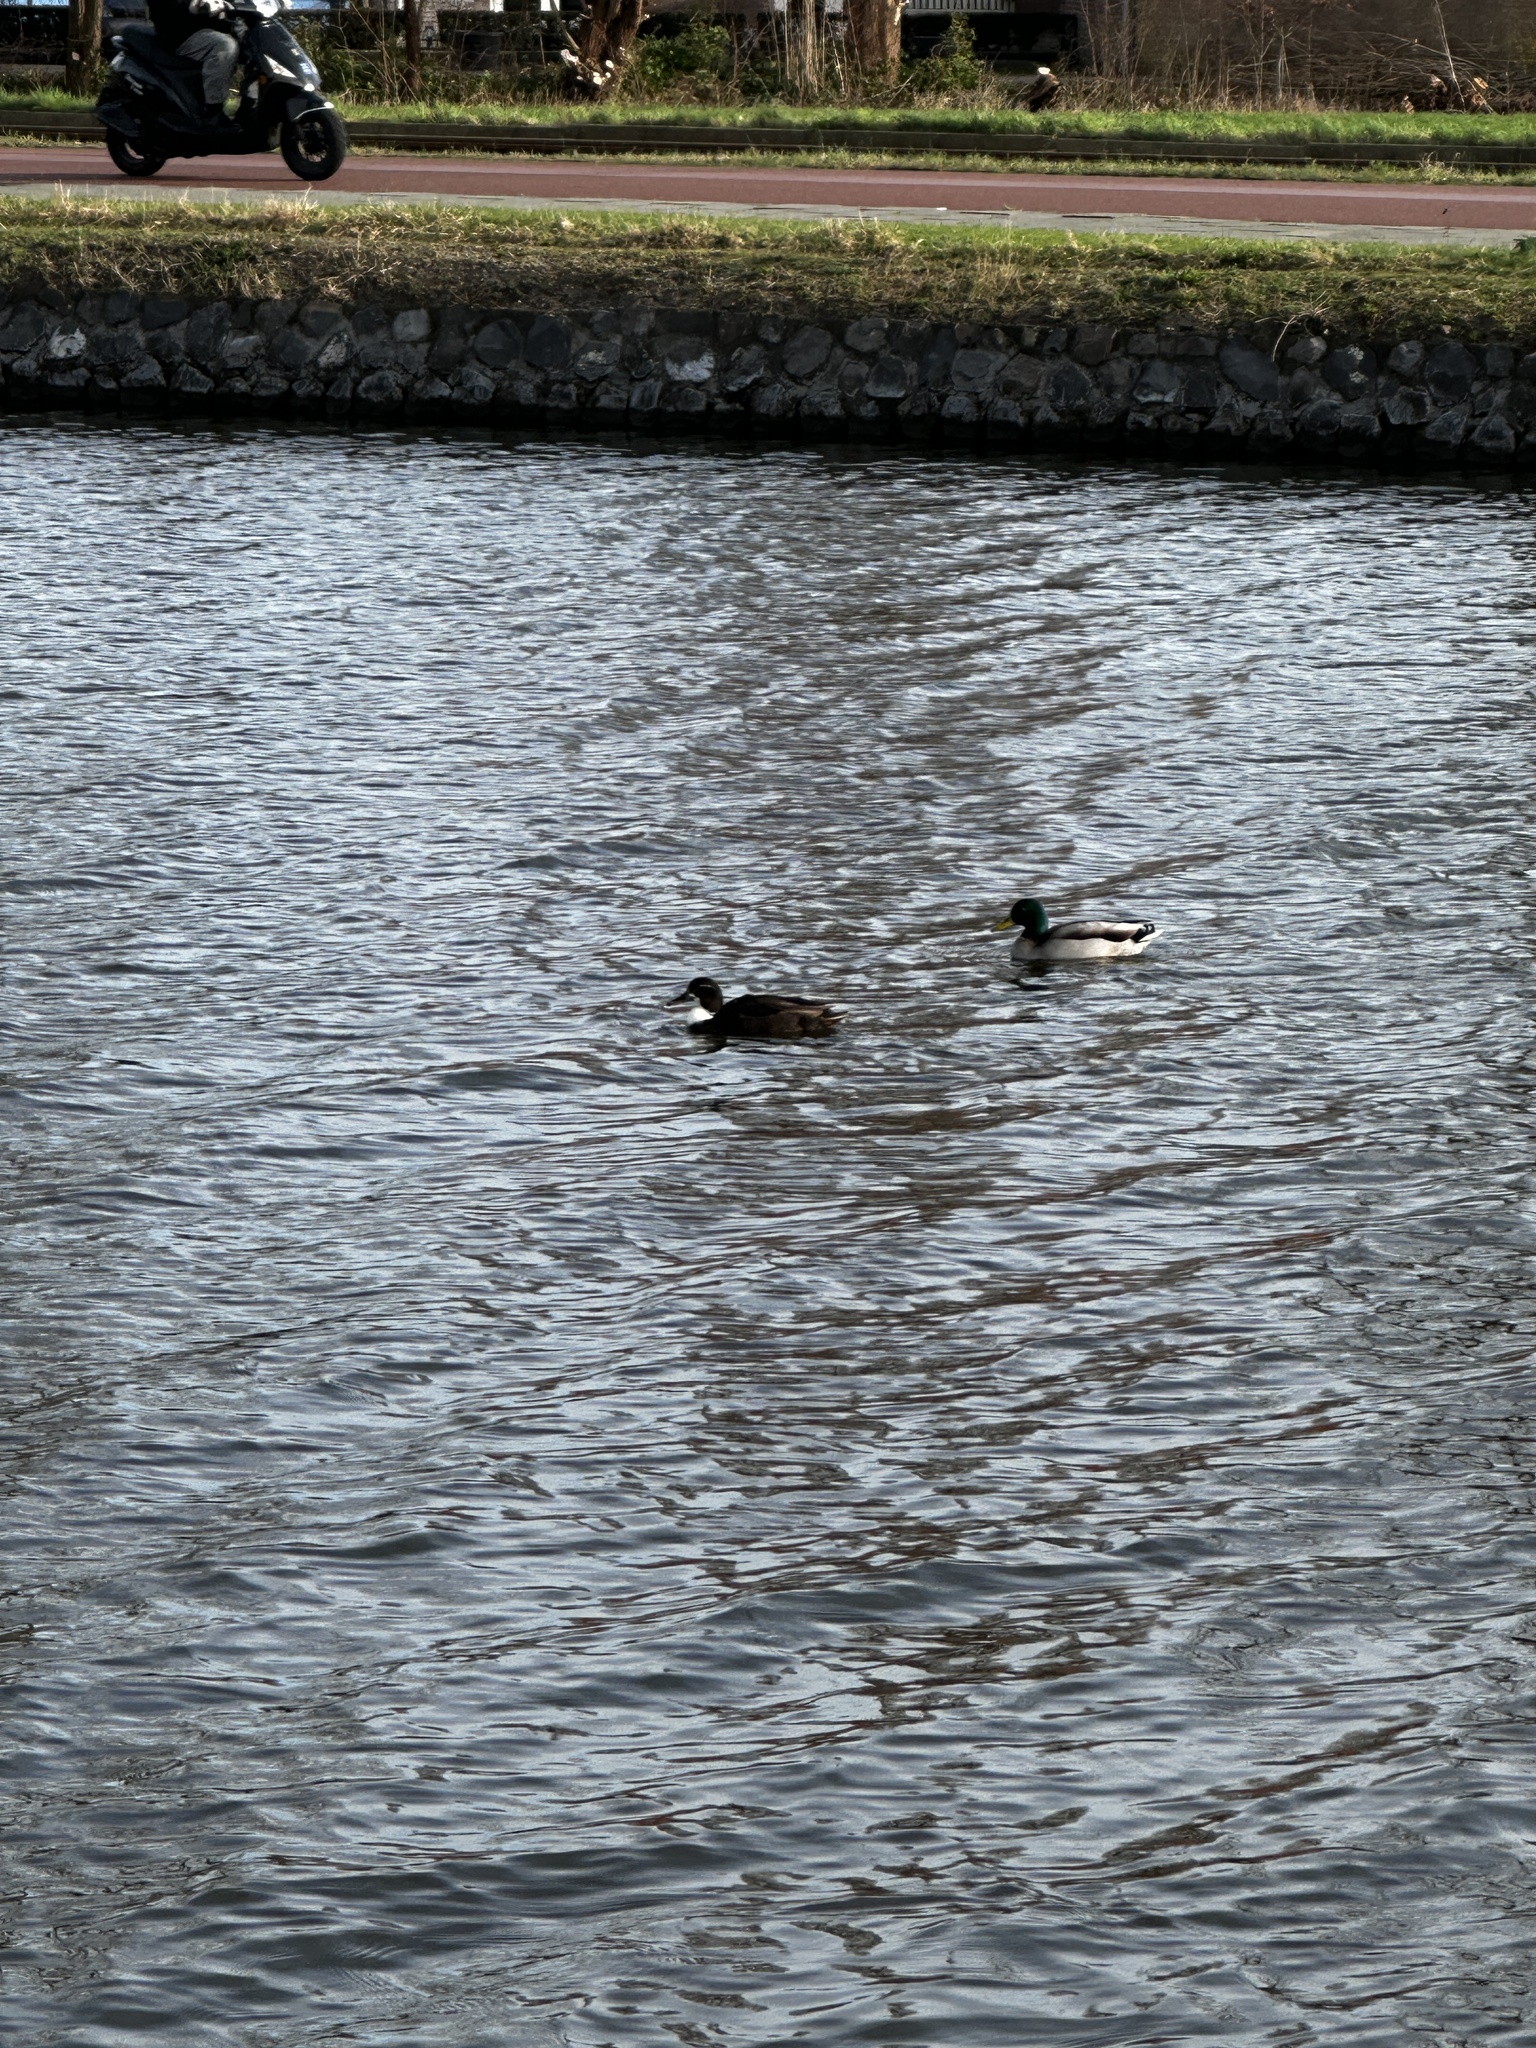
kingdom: Animalia
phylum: Chordata
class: Aves
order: Anseriformes
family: Anatidae
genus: Anas
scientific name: Anas platyrhynchos
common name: Mallard
